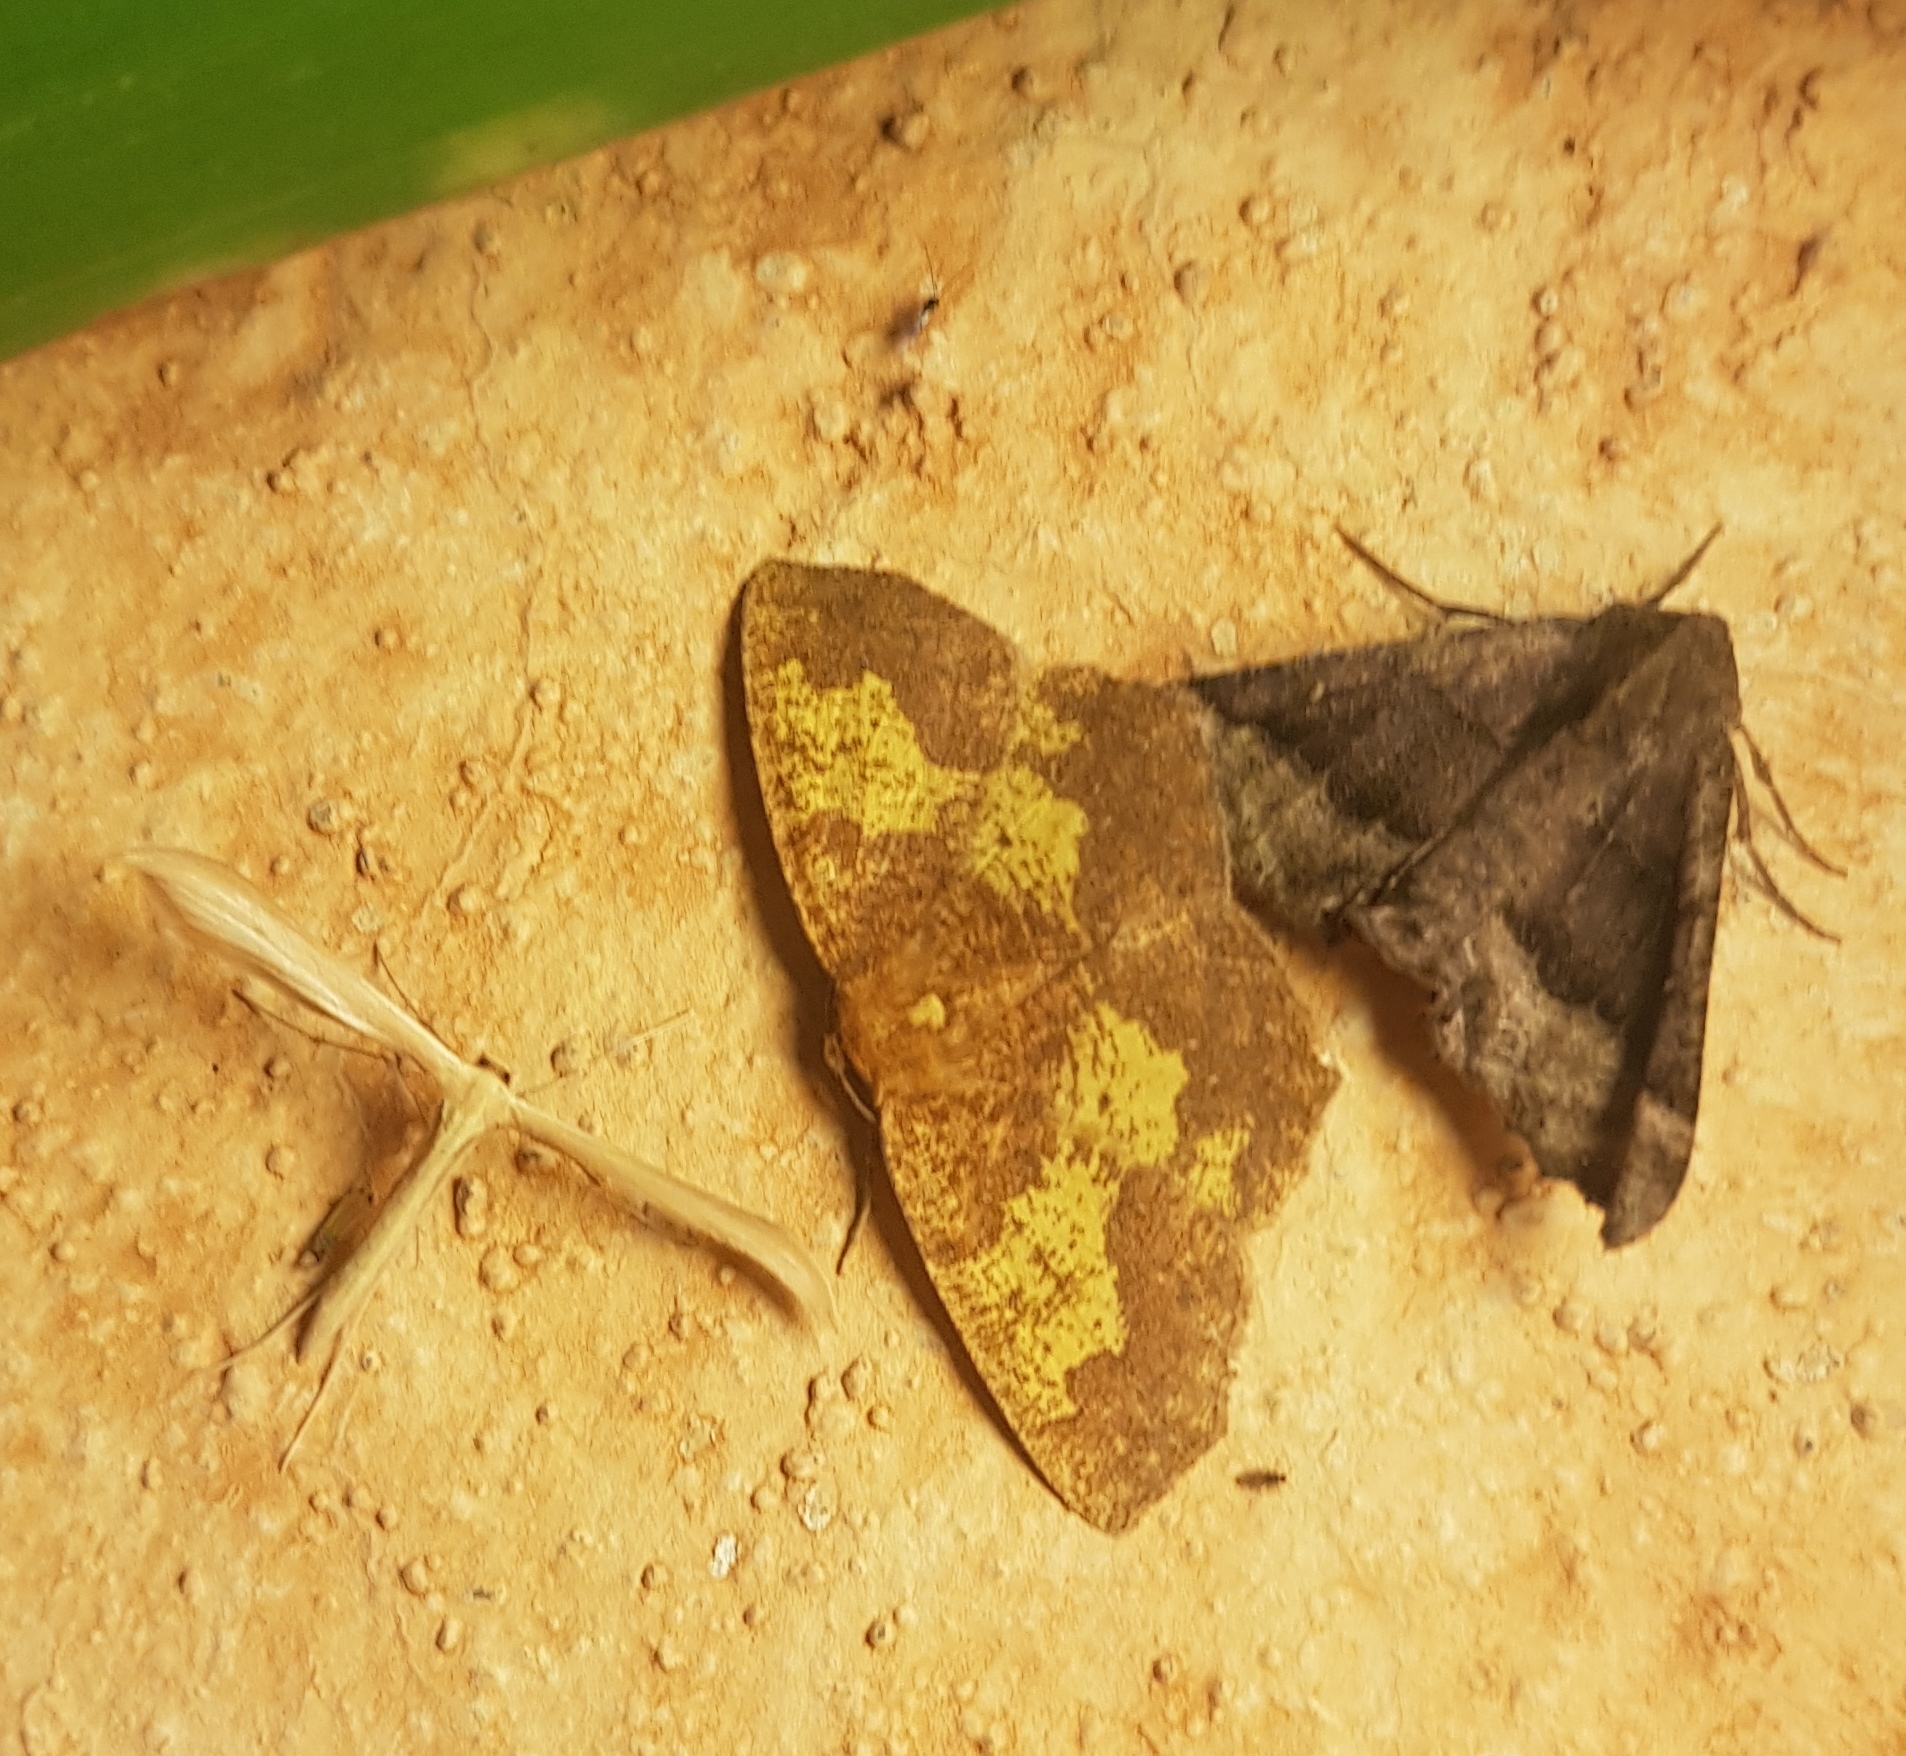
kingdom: Animalia
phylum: Arthropoda
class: Insecta
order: Lepidoptera
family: Geometridae
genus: Periclina
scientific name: Periclina merana
